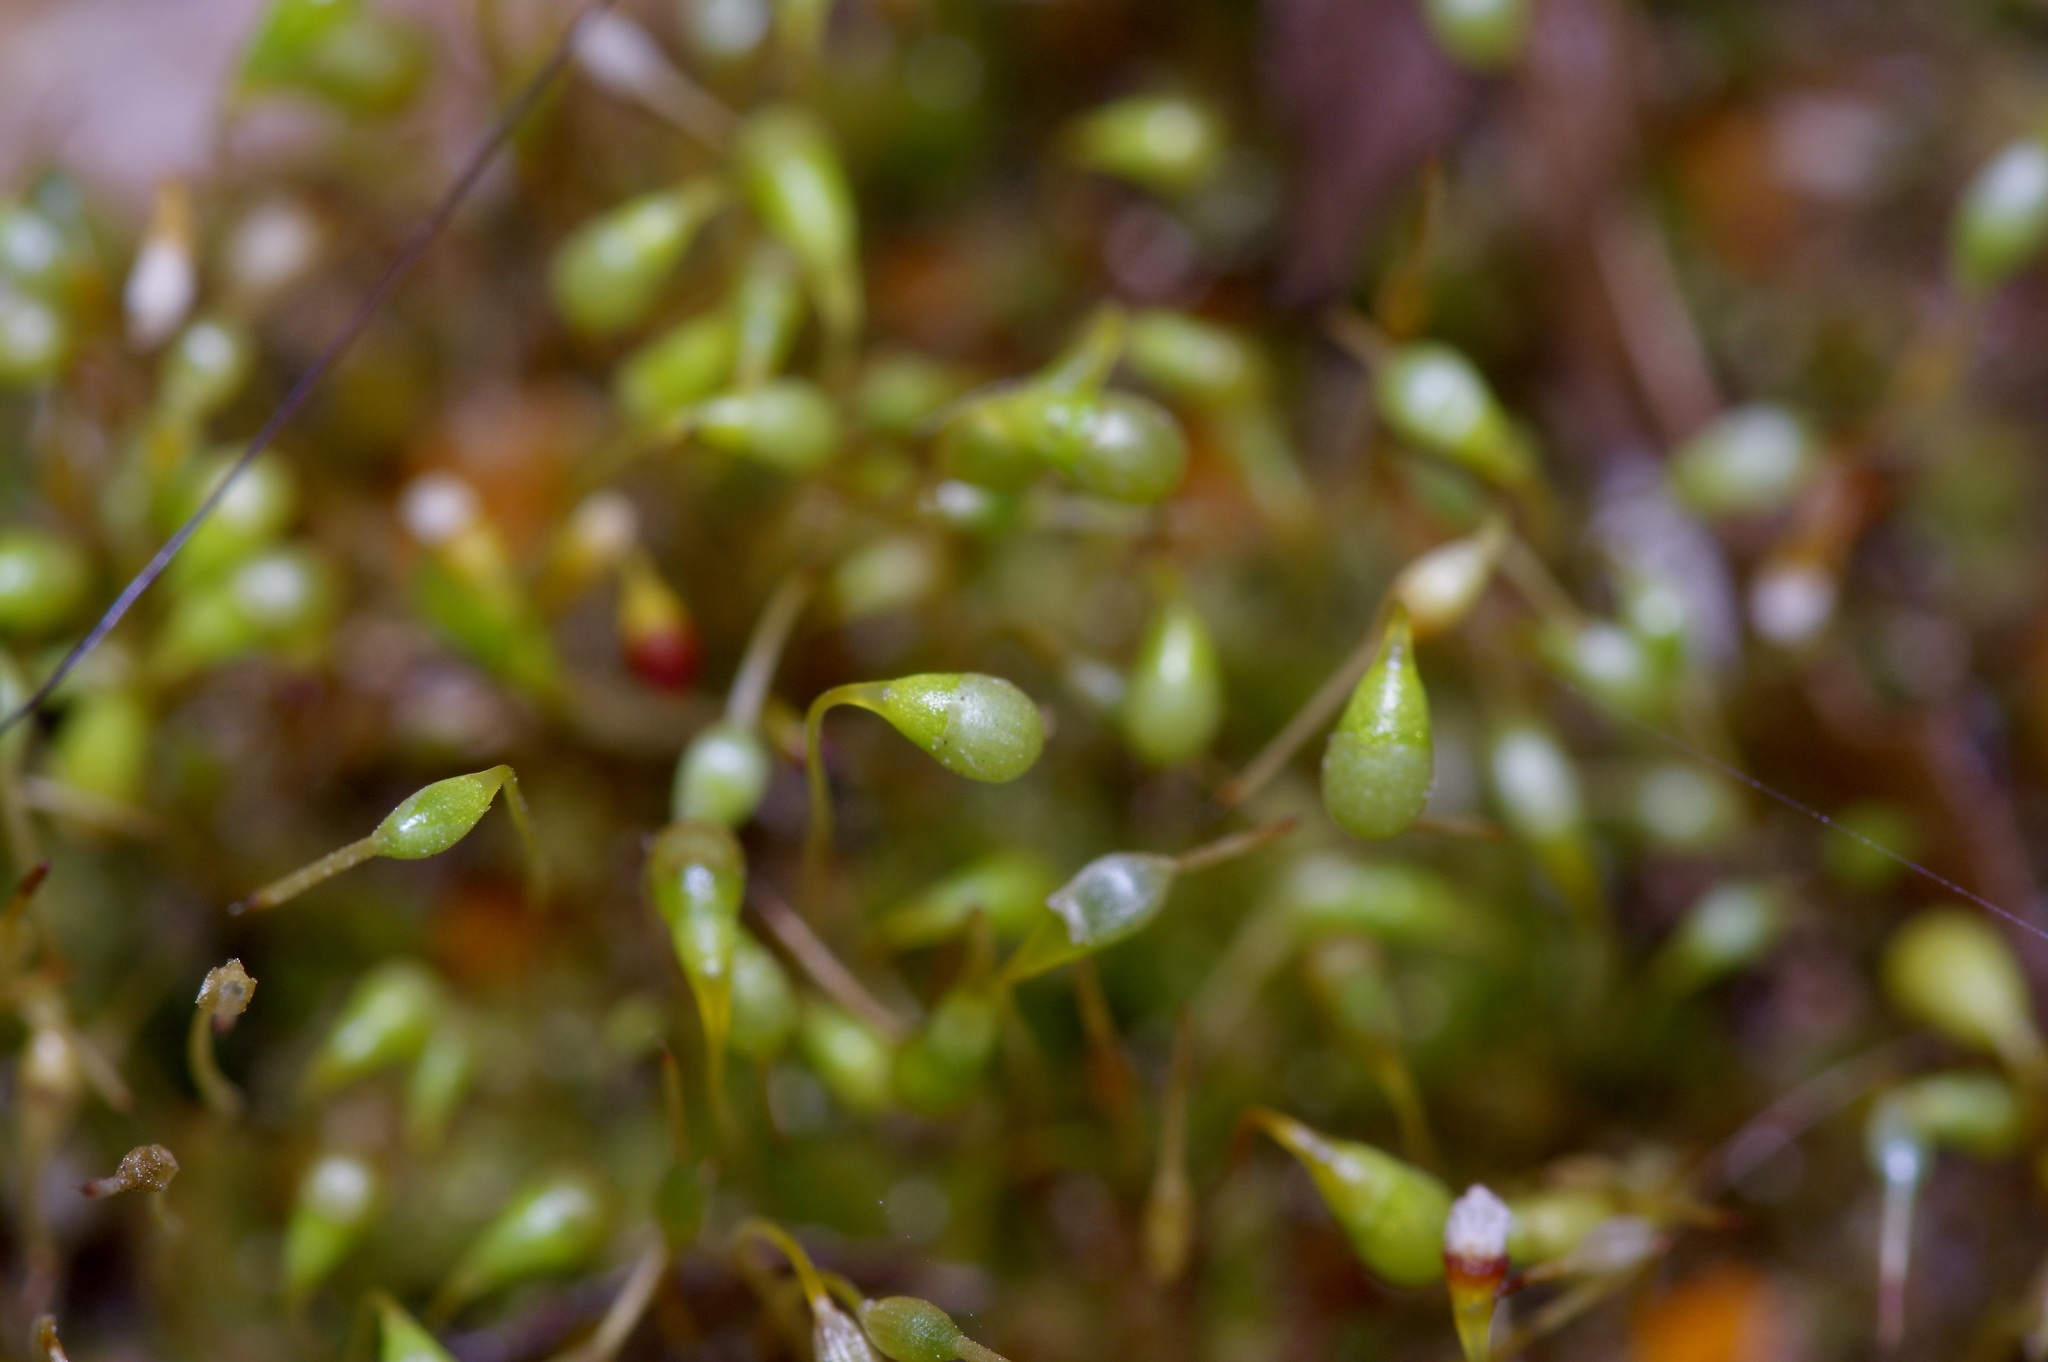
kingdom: Plantae
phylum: Bryophyta
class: Bryopsida
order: Funariales
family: Funariaceae
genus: Funaria
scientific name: Funaria hygrometrica
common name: Common cord moss
